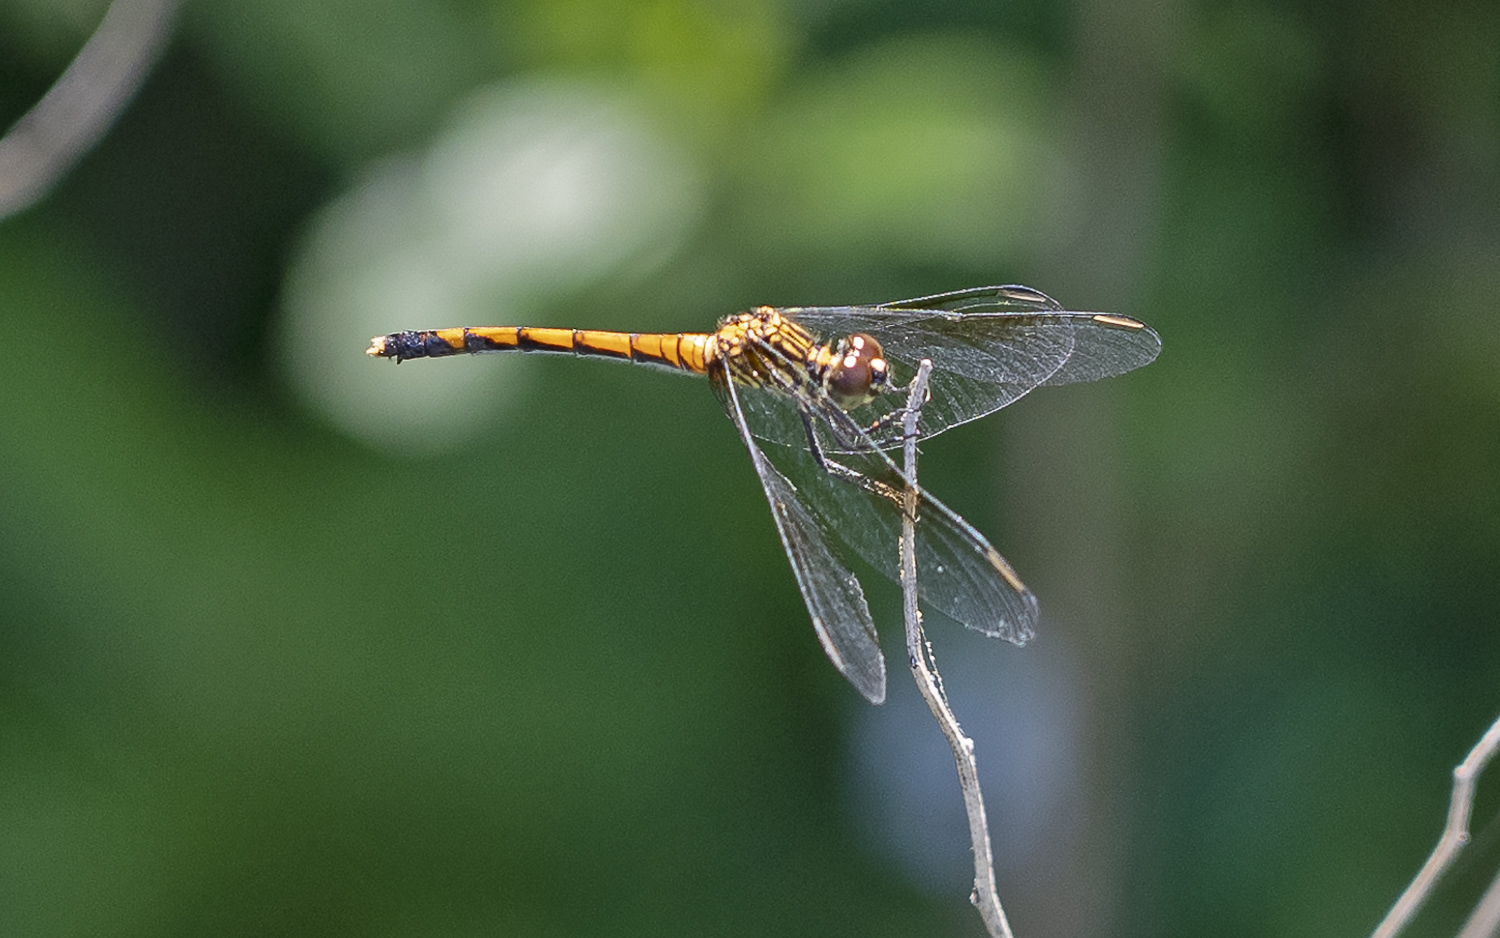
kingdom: Animalia
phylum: Arthropoda
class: Insecta
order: Odonata
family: Libellulidae
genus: Erythrodiplax
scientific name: Erythrodiplax berenice
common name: Seaside dragonlet
